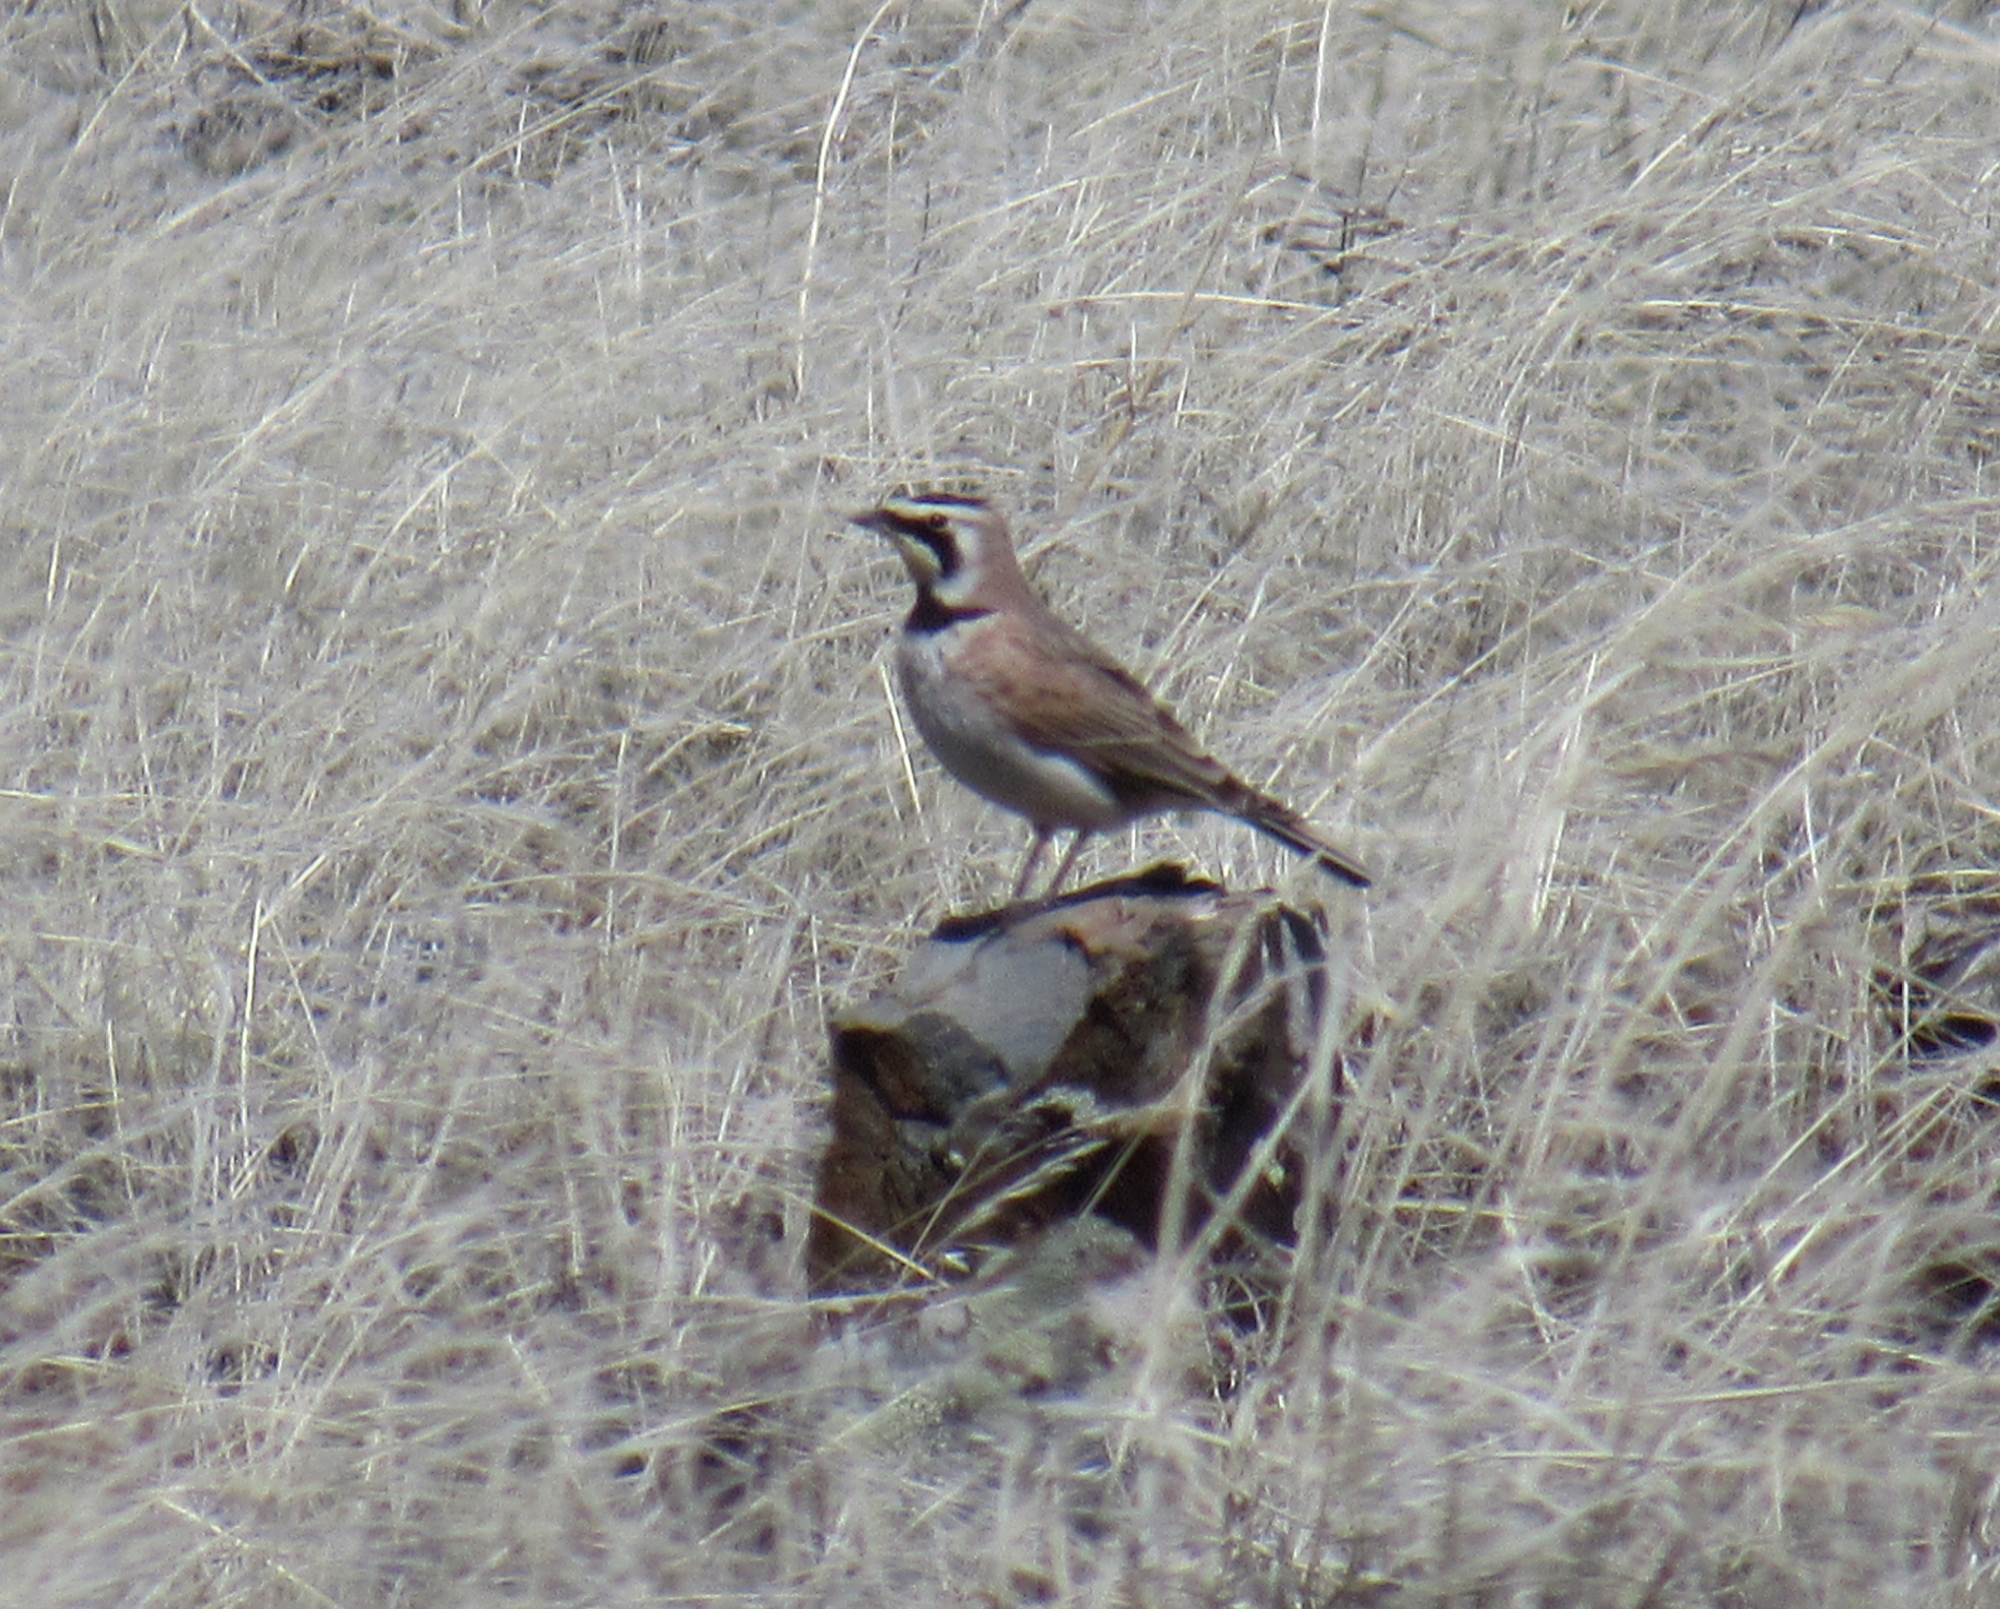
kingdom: Animalia
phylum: Chordata
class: Aves
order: Passeriformes
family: Alaudidae
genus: Eremophila
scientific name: Eremophila alpestris
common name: Horned lark
